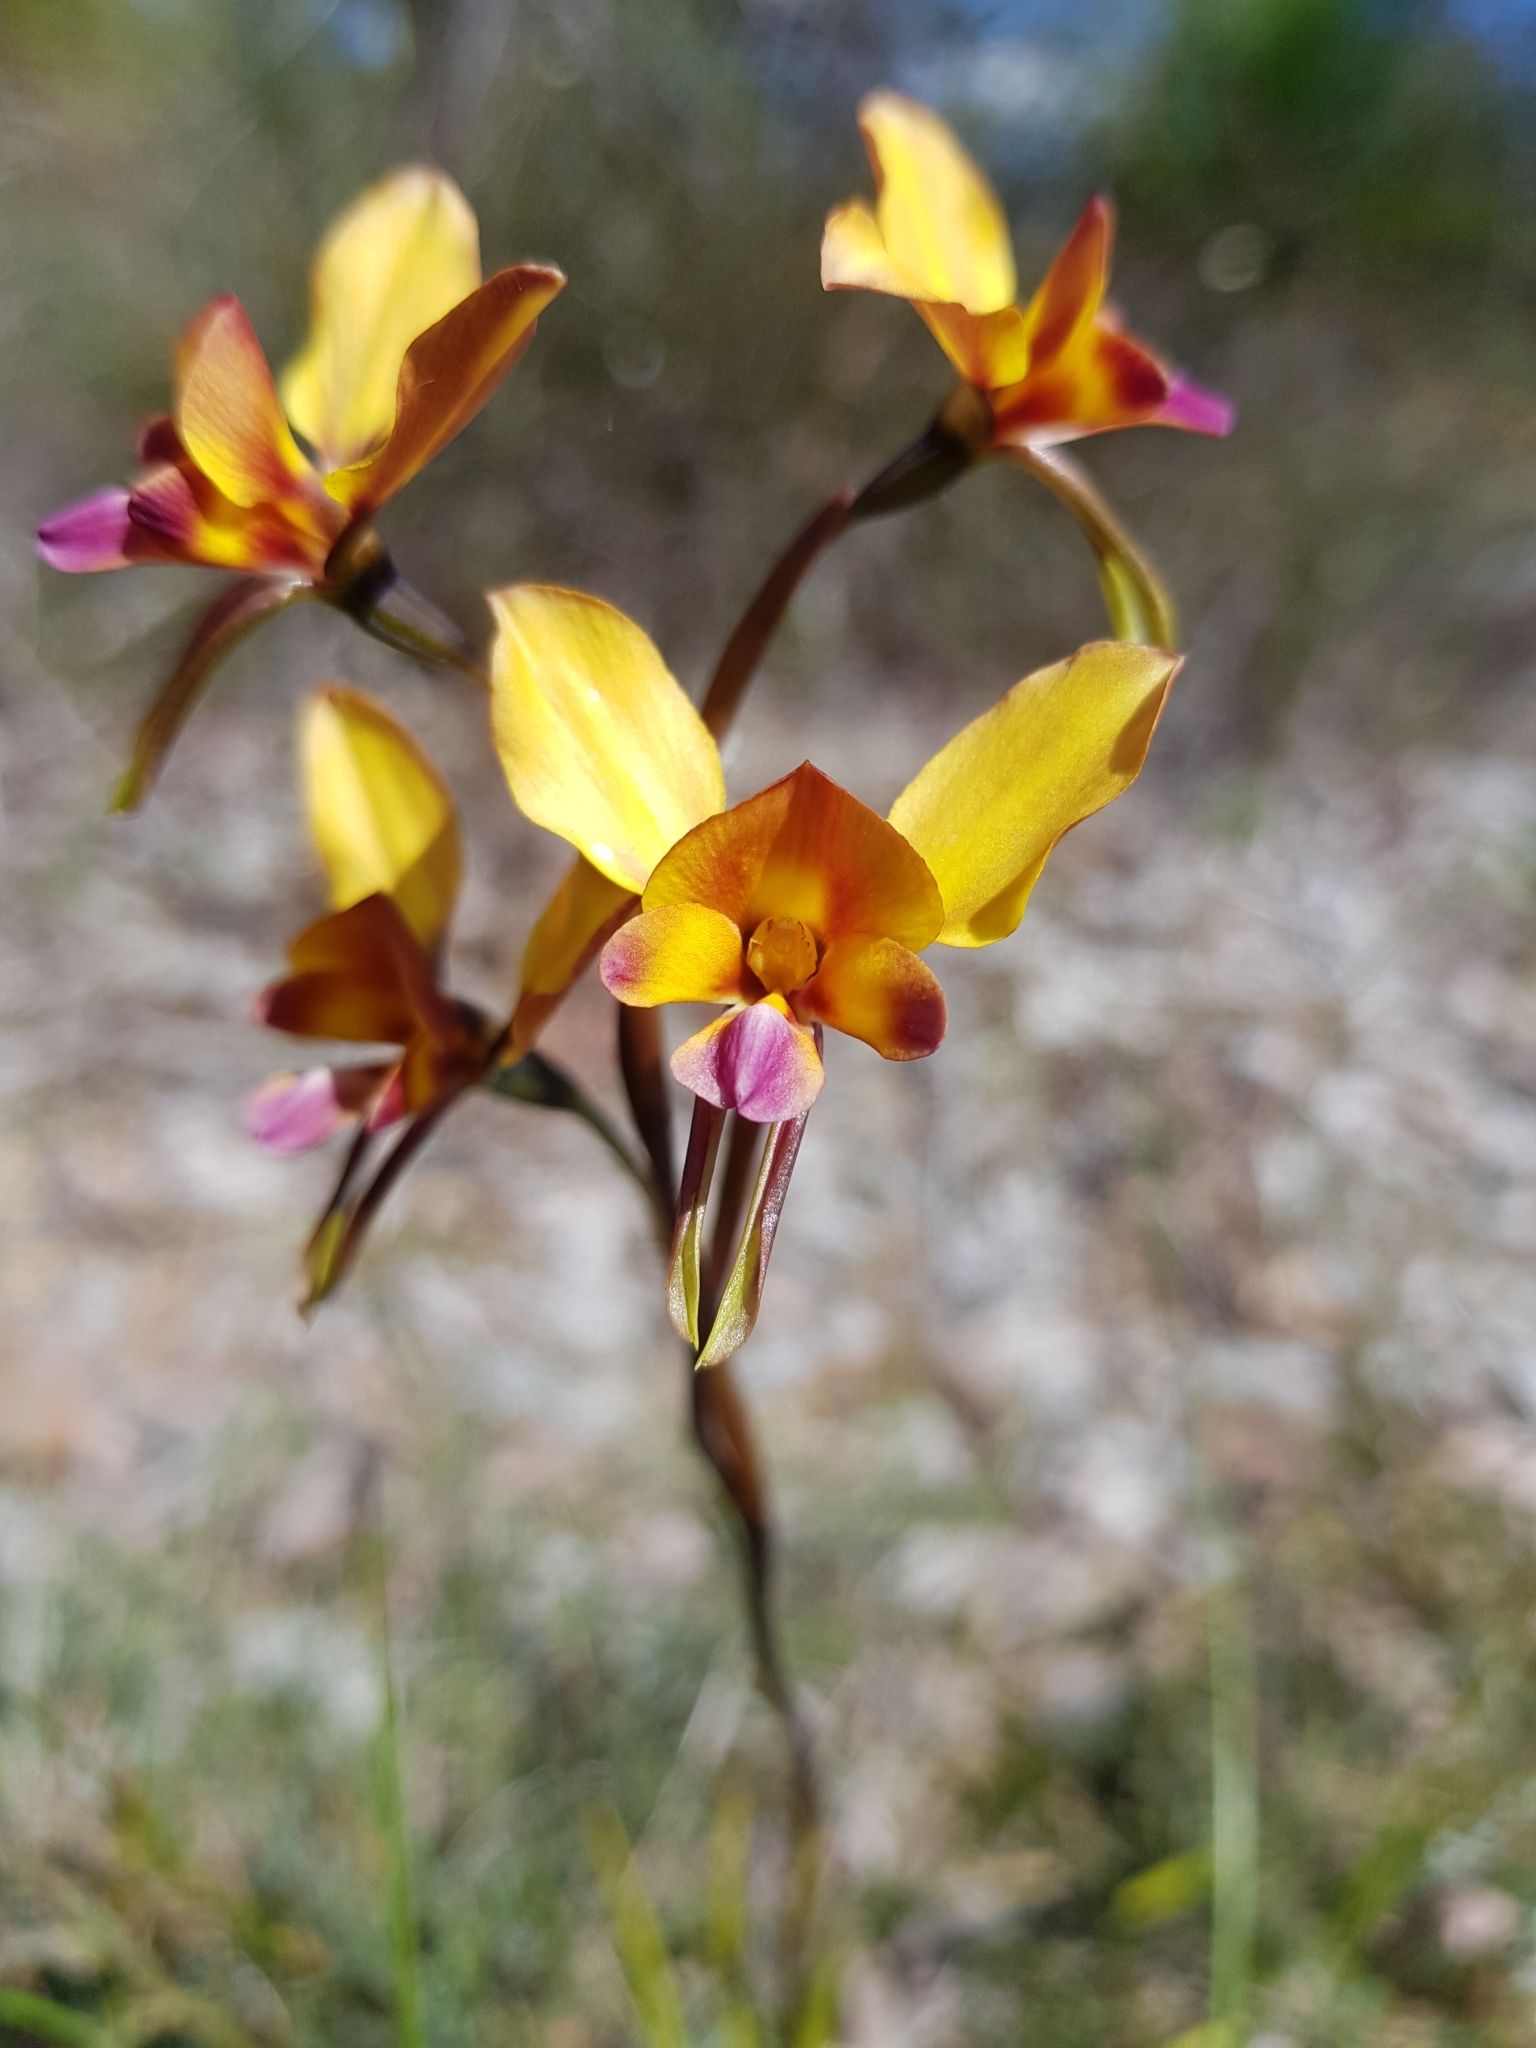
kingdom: Plantae
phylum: Tracheophyta
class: Liliopsida
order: Asparagales
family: Orchidaceae
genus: Diuris
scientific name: Diuris magnifica
